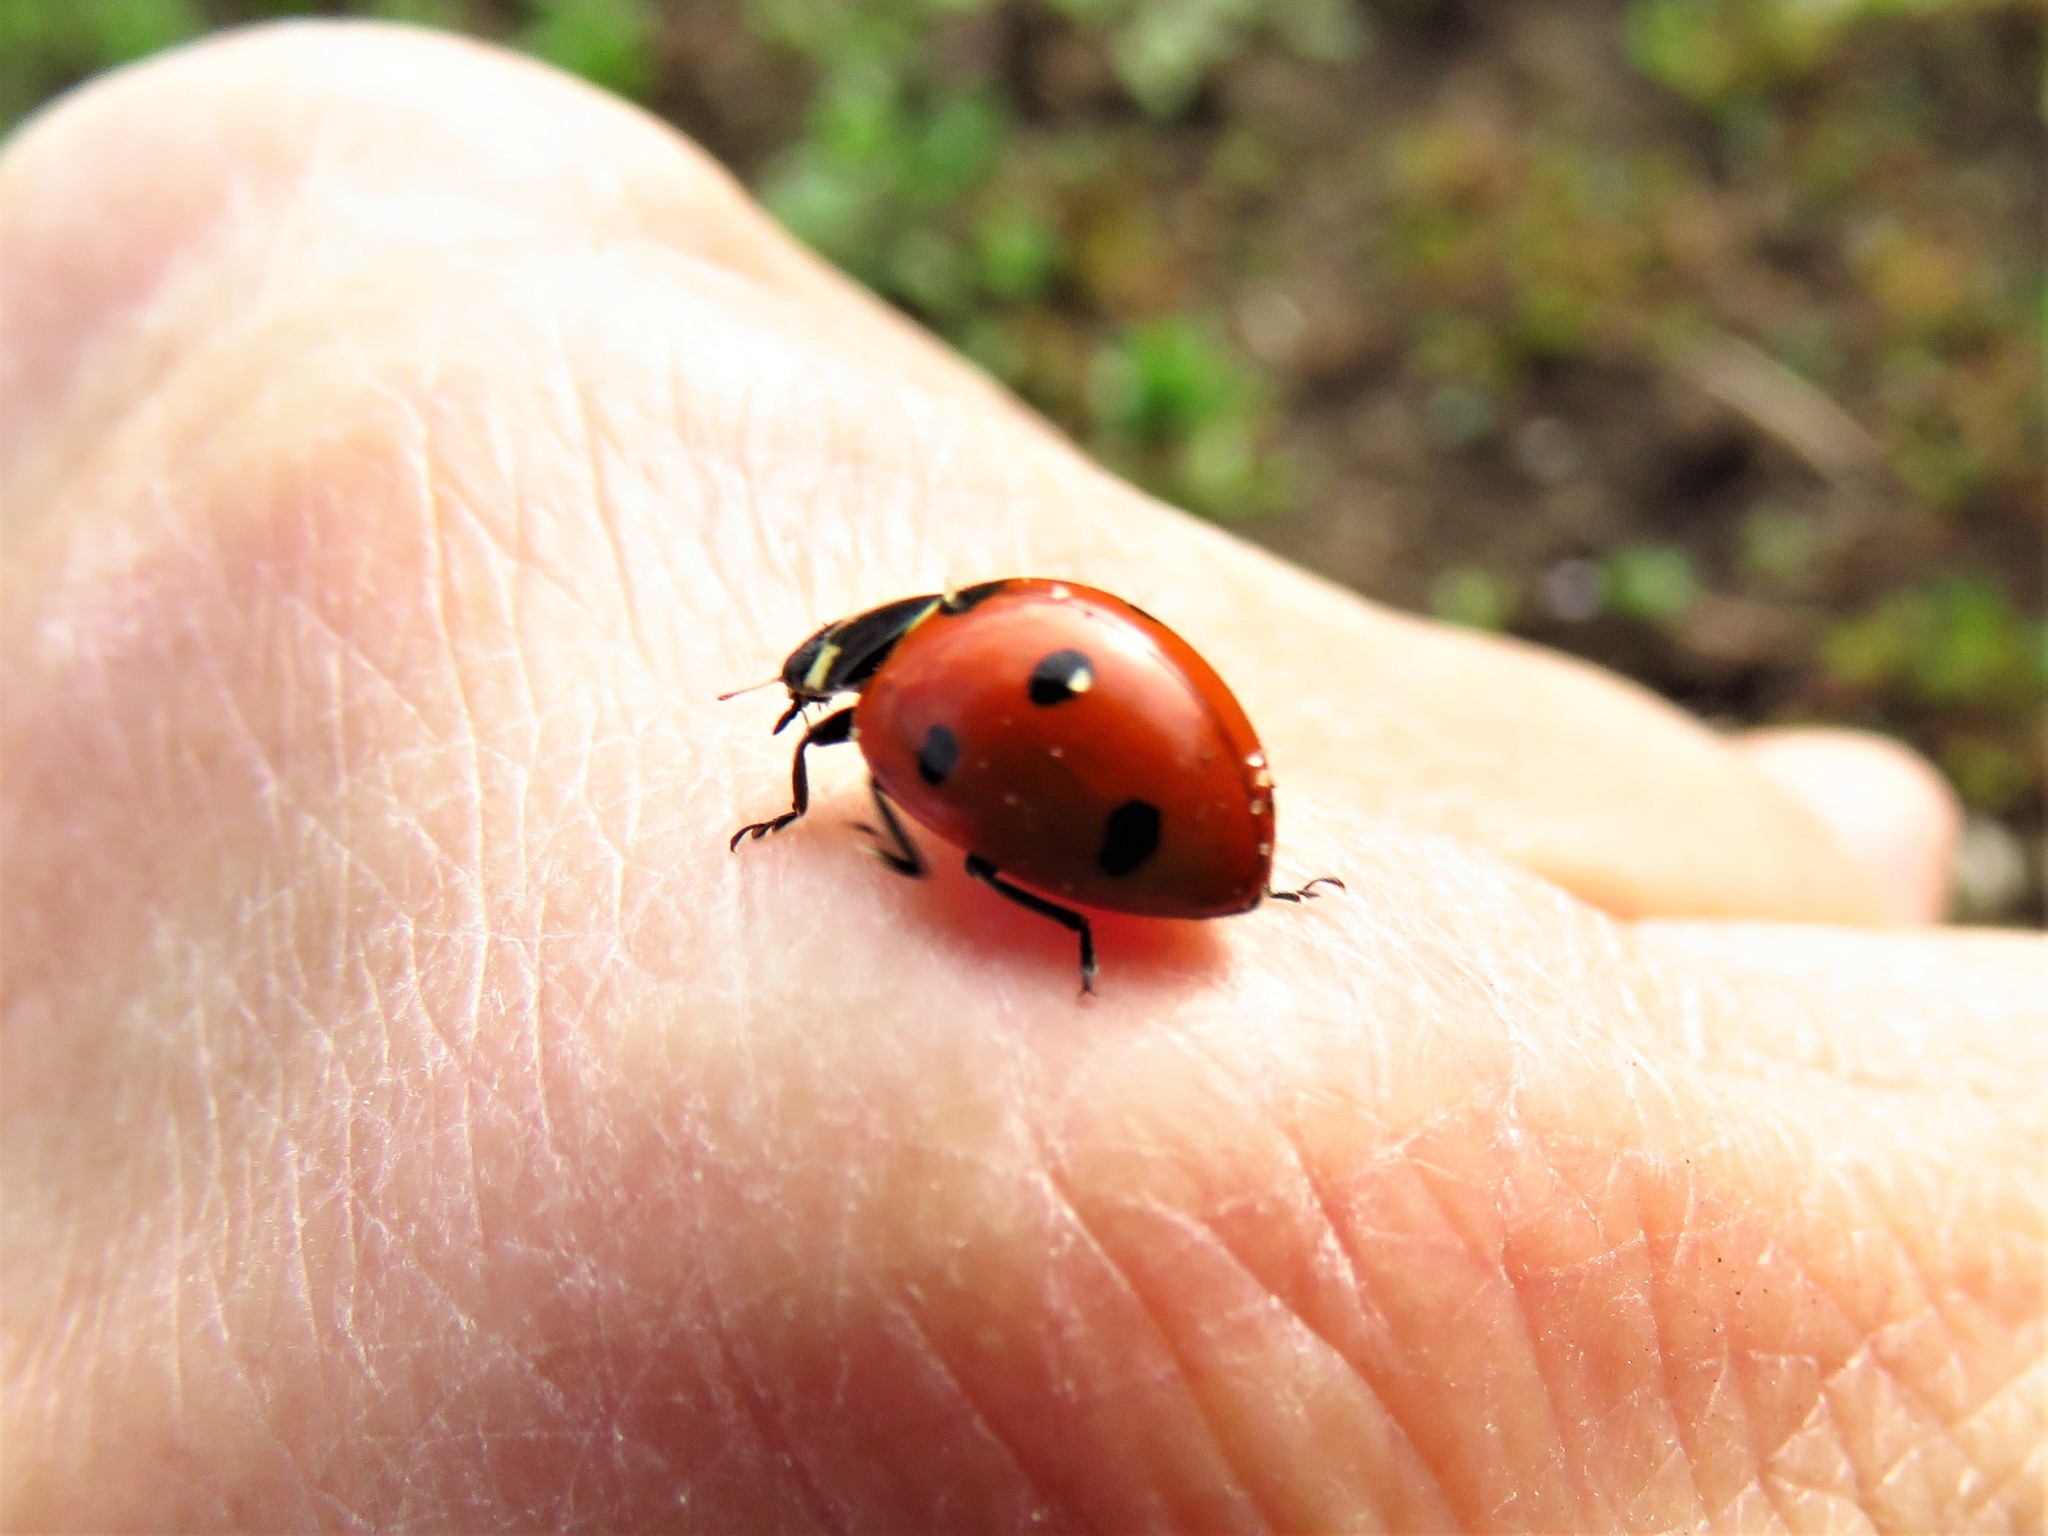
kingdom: Animalia
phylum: Arthropoda
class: Insecta
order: Coleoptera
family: Coccinellidae
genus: Coccinella
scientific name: Coccinella septempunctata
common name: Sevenspotted lady beetle
